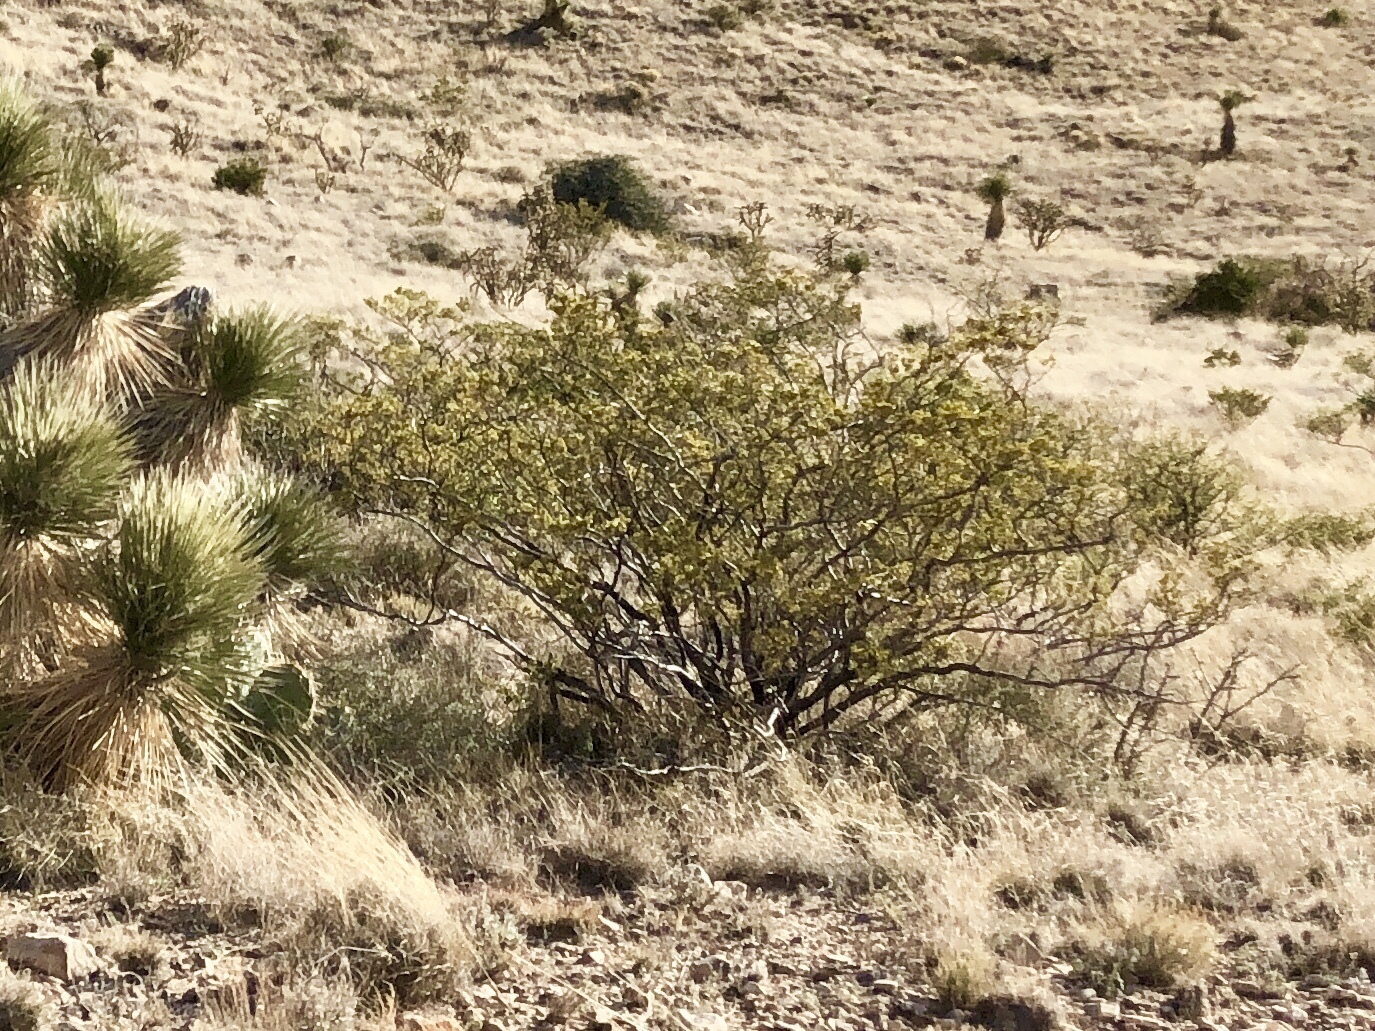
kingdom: Plantae
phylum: Tracheophyta
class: Magnoliopsida
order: Zygophyllales
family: Zygophyllaceae
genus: Larrea
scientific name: Larrea tridentata
